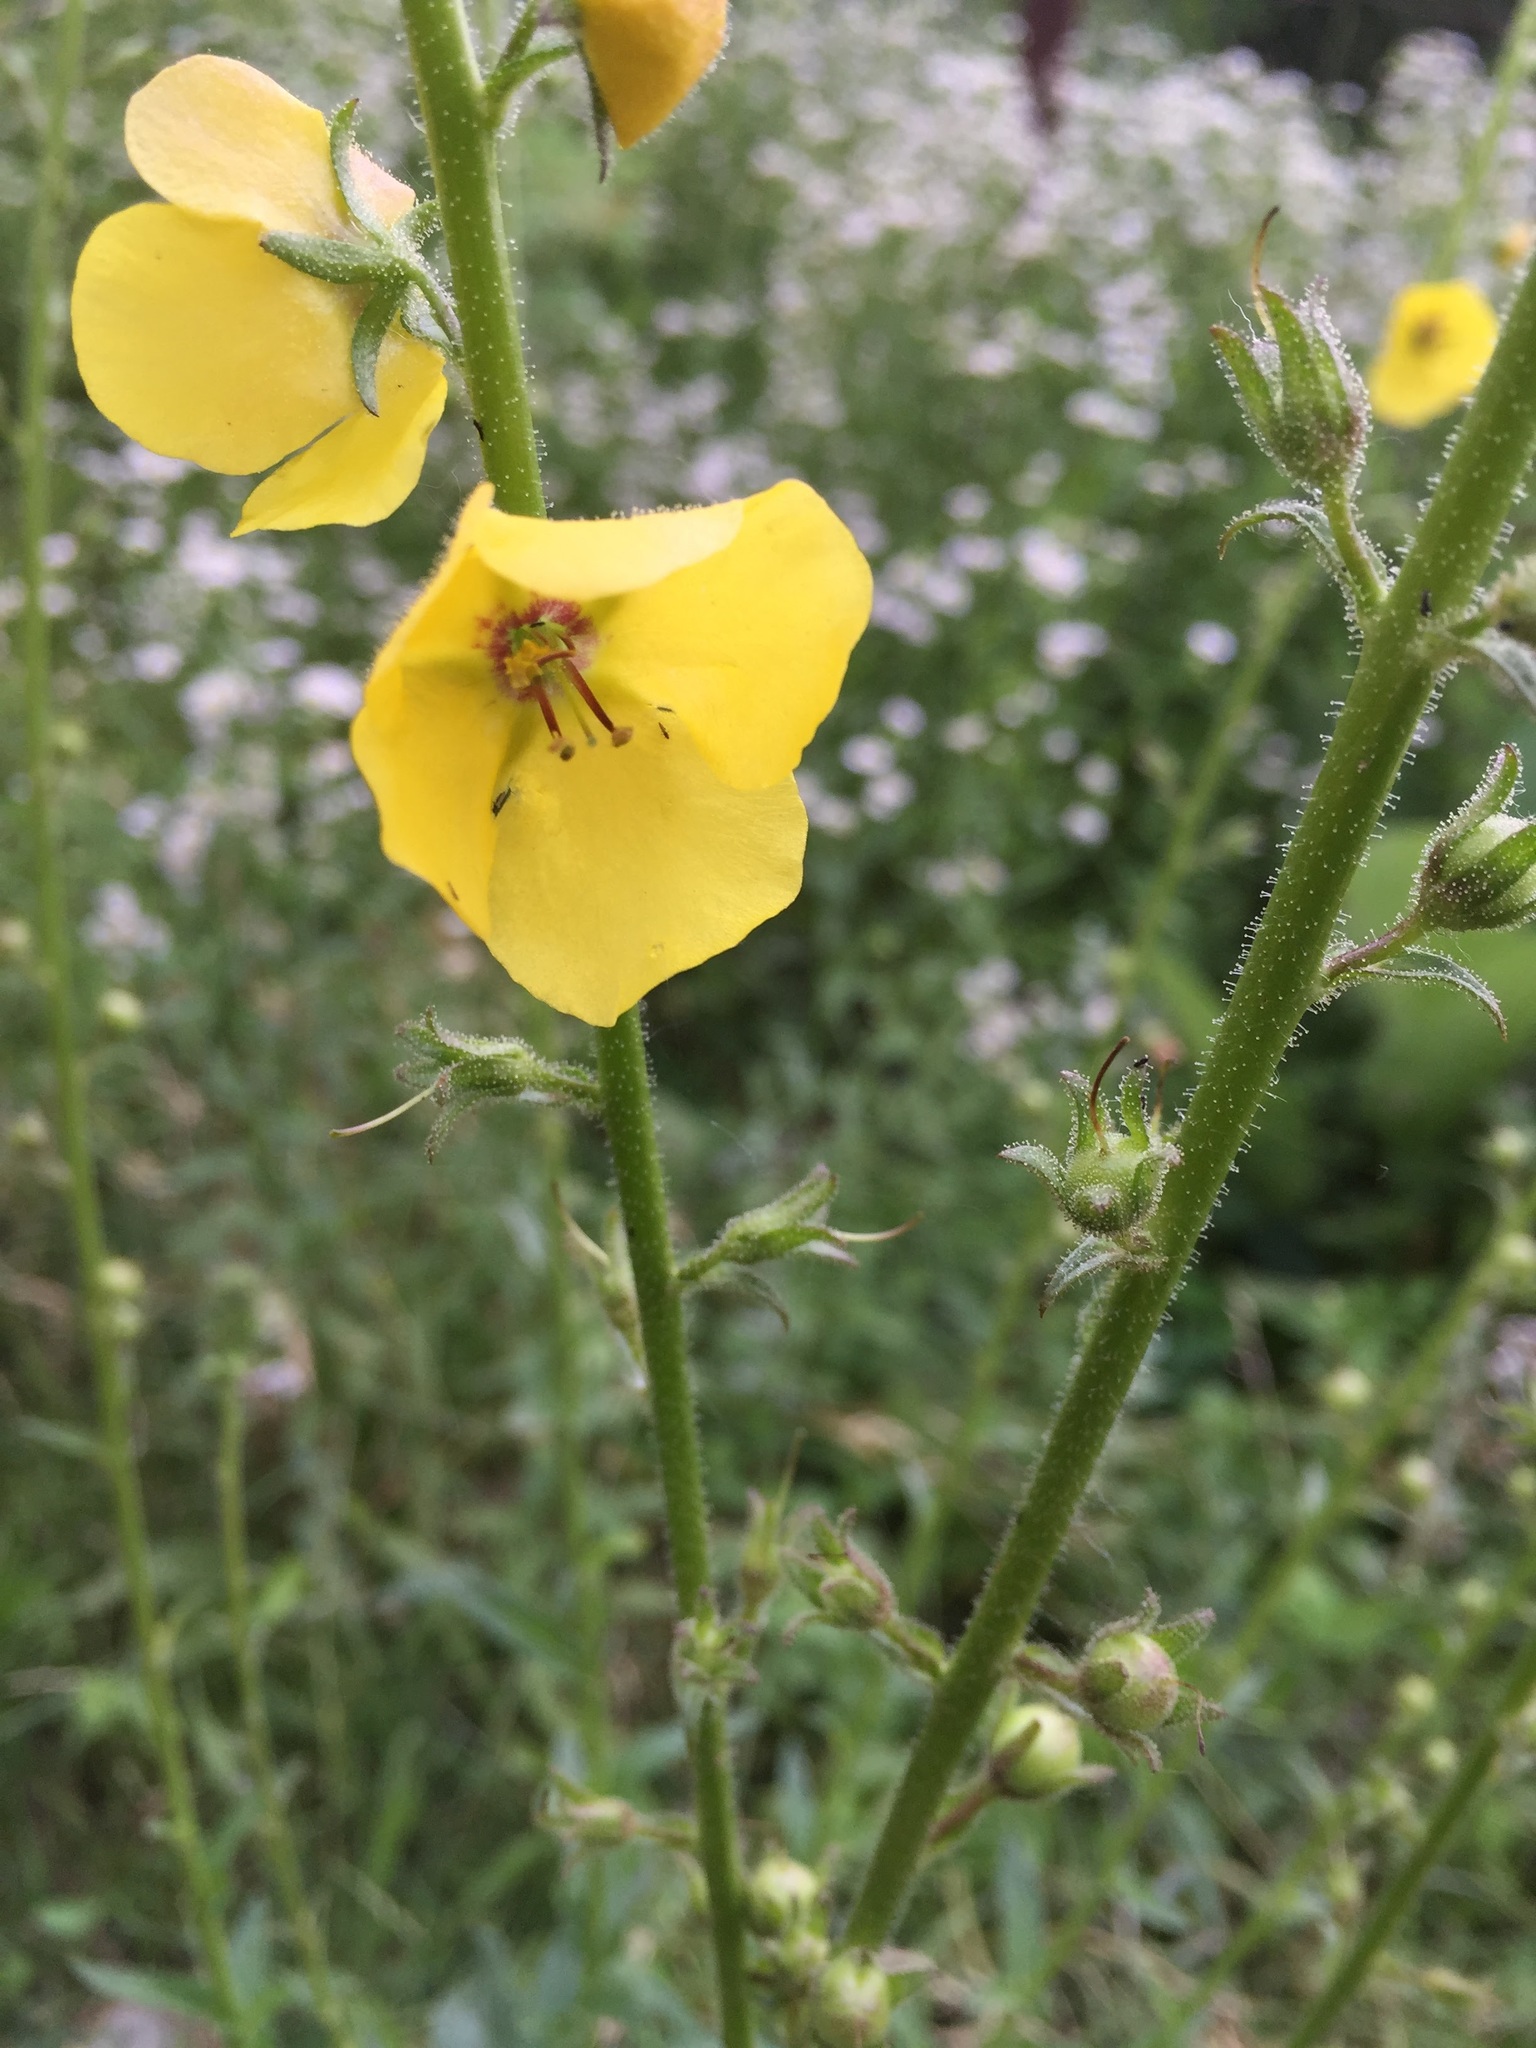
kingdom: Plantae
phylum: Tracheophyta
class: Magnoliopsida
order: Lamiales
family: Scrophulariaceae
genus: Verbascum
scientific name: Verbascum blattaria
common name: Moth mullein
